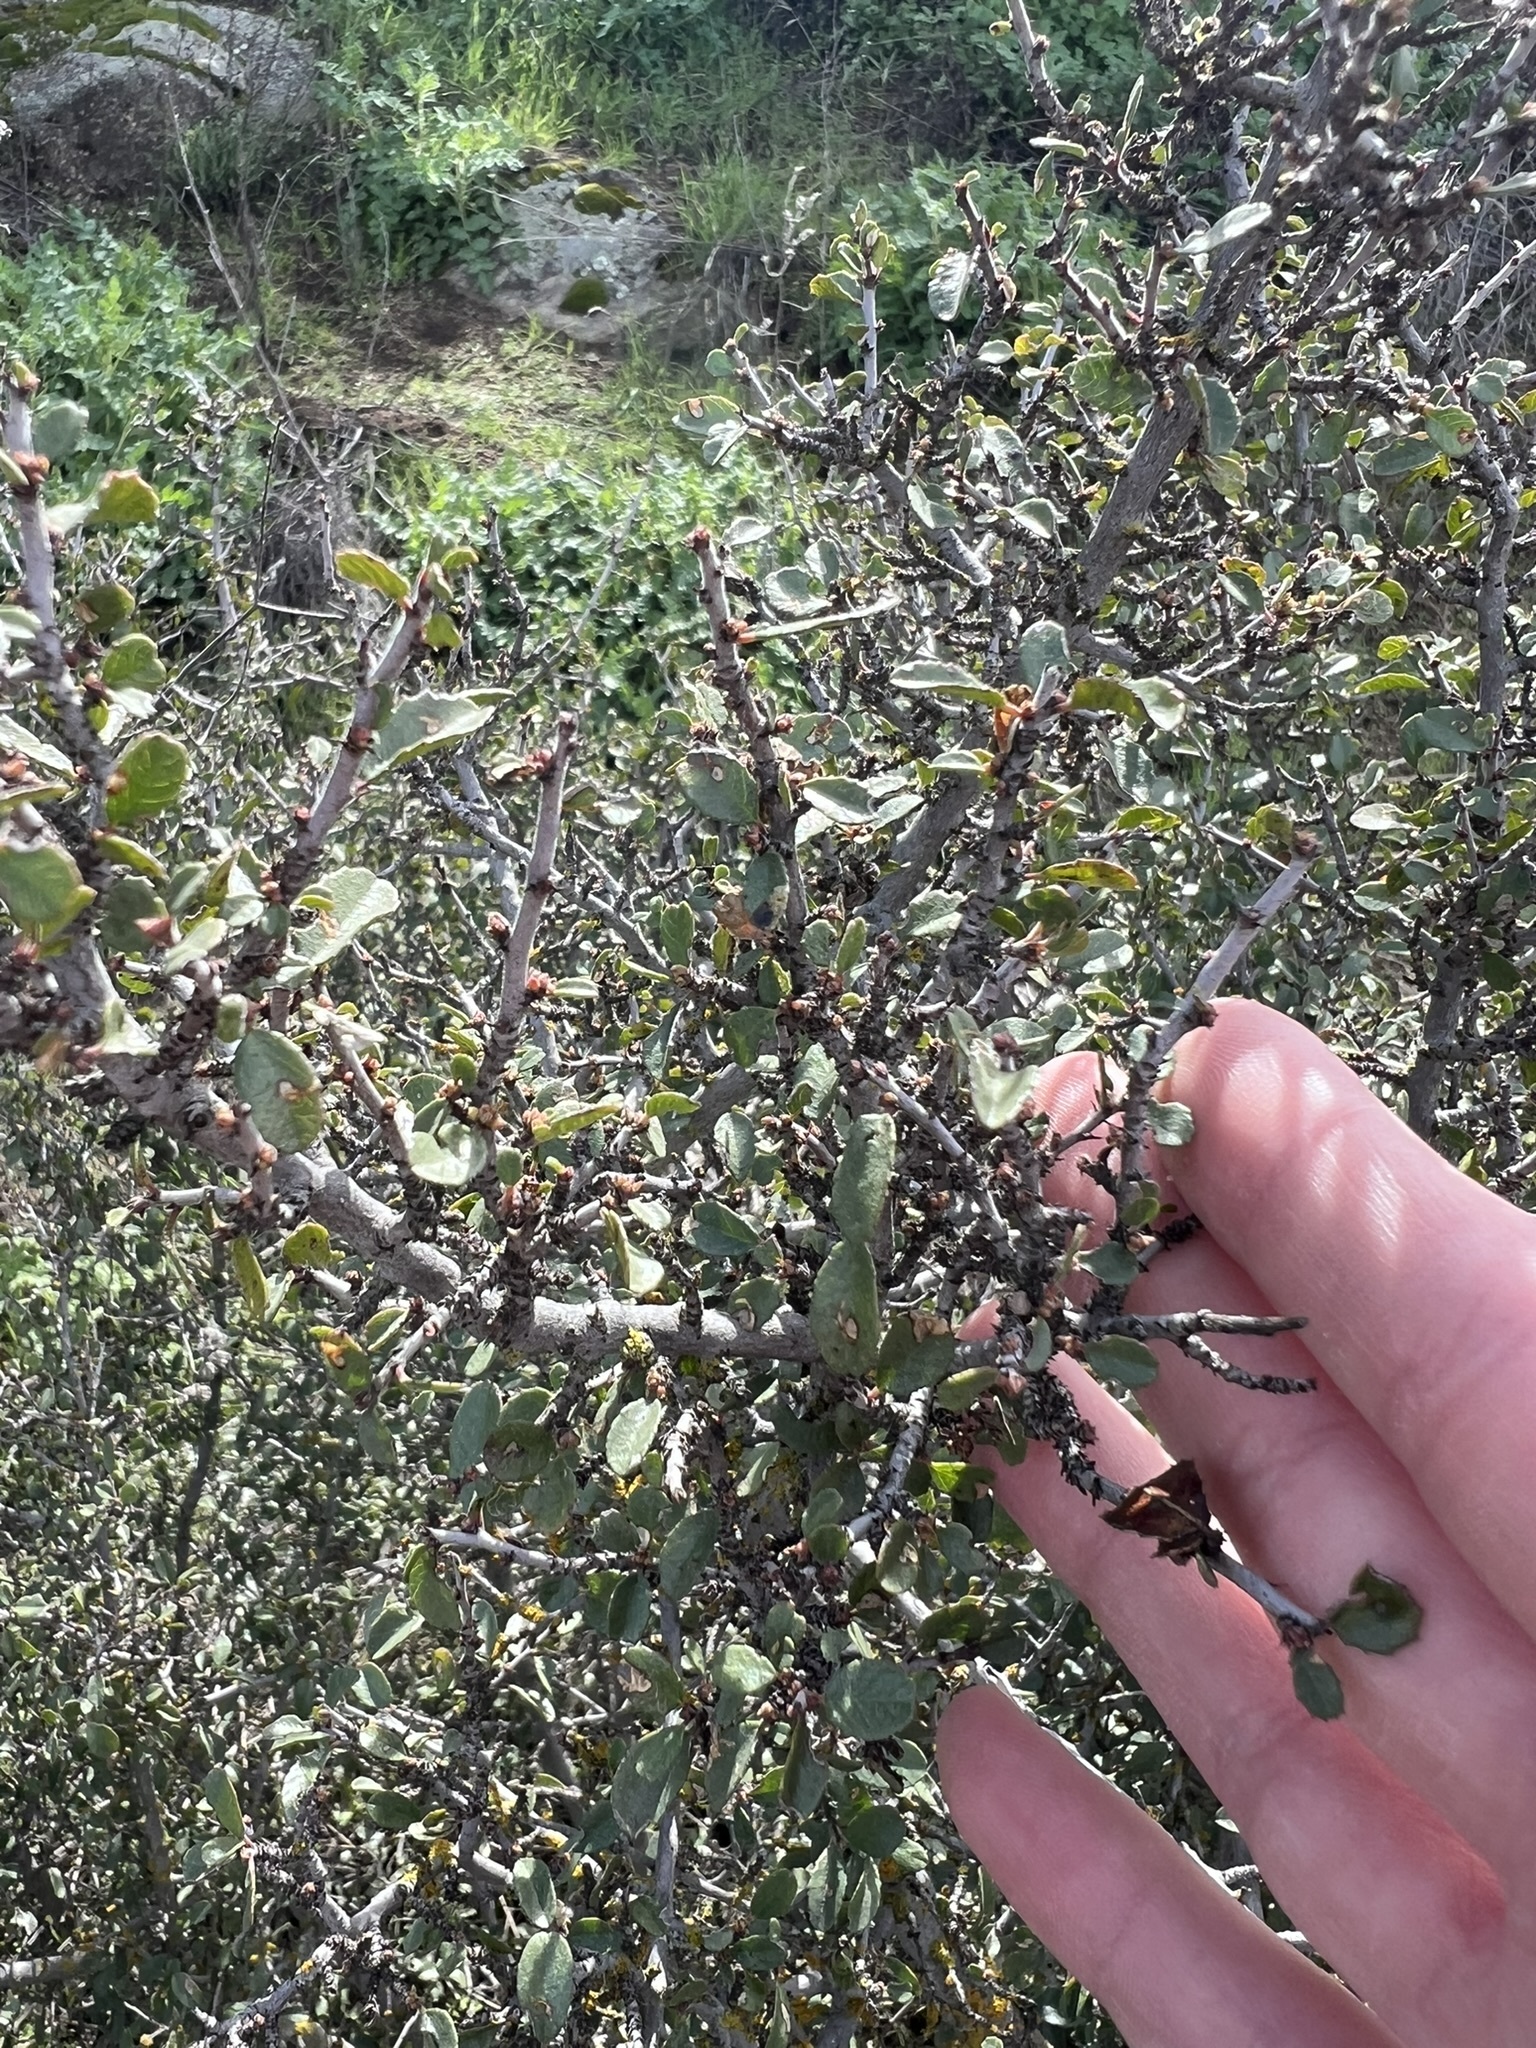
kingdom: Plantae
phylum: Tracheophyta
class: Magnoliopsida
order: Rosales
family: Rhamnaceae
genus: Endotropis
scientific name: Endotropis crocea
